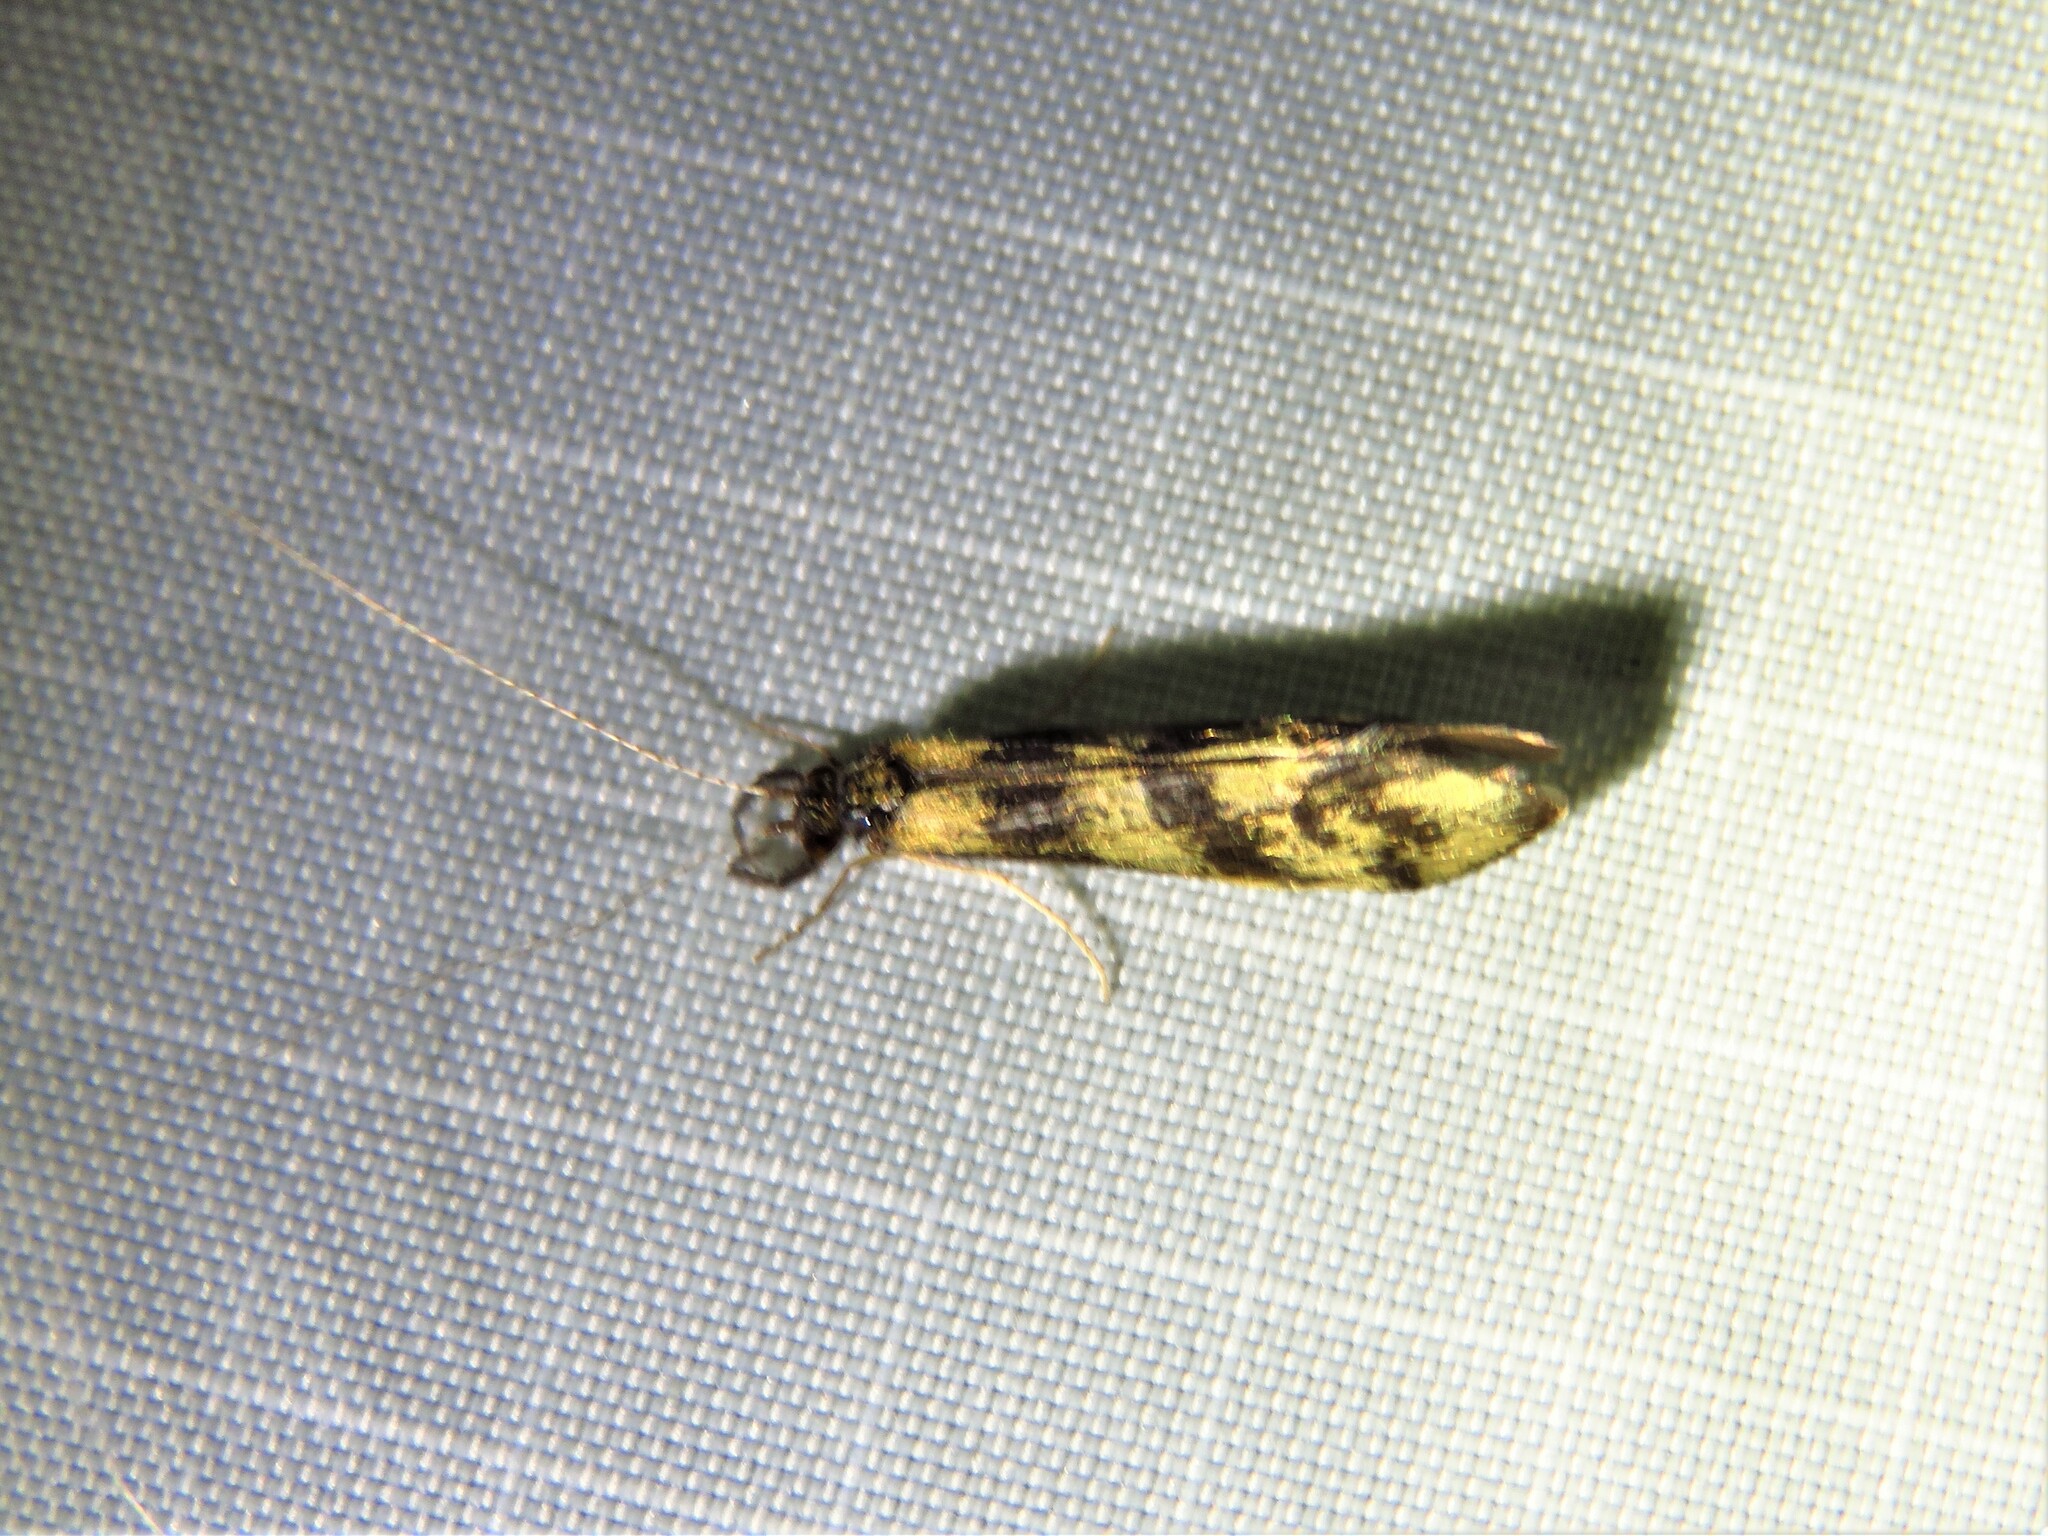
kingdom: Animalia
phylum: Arthropoda
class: Insecta
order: Trichoptera
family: Leptoceridae
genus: Mystacides
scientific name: Mystacides longicornis
